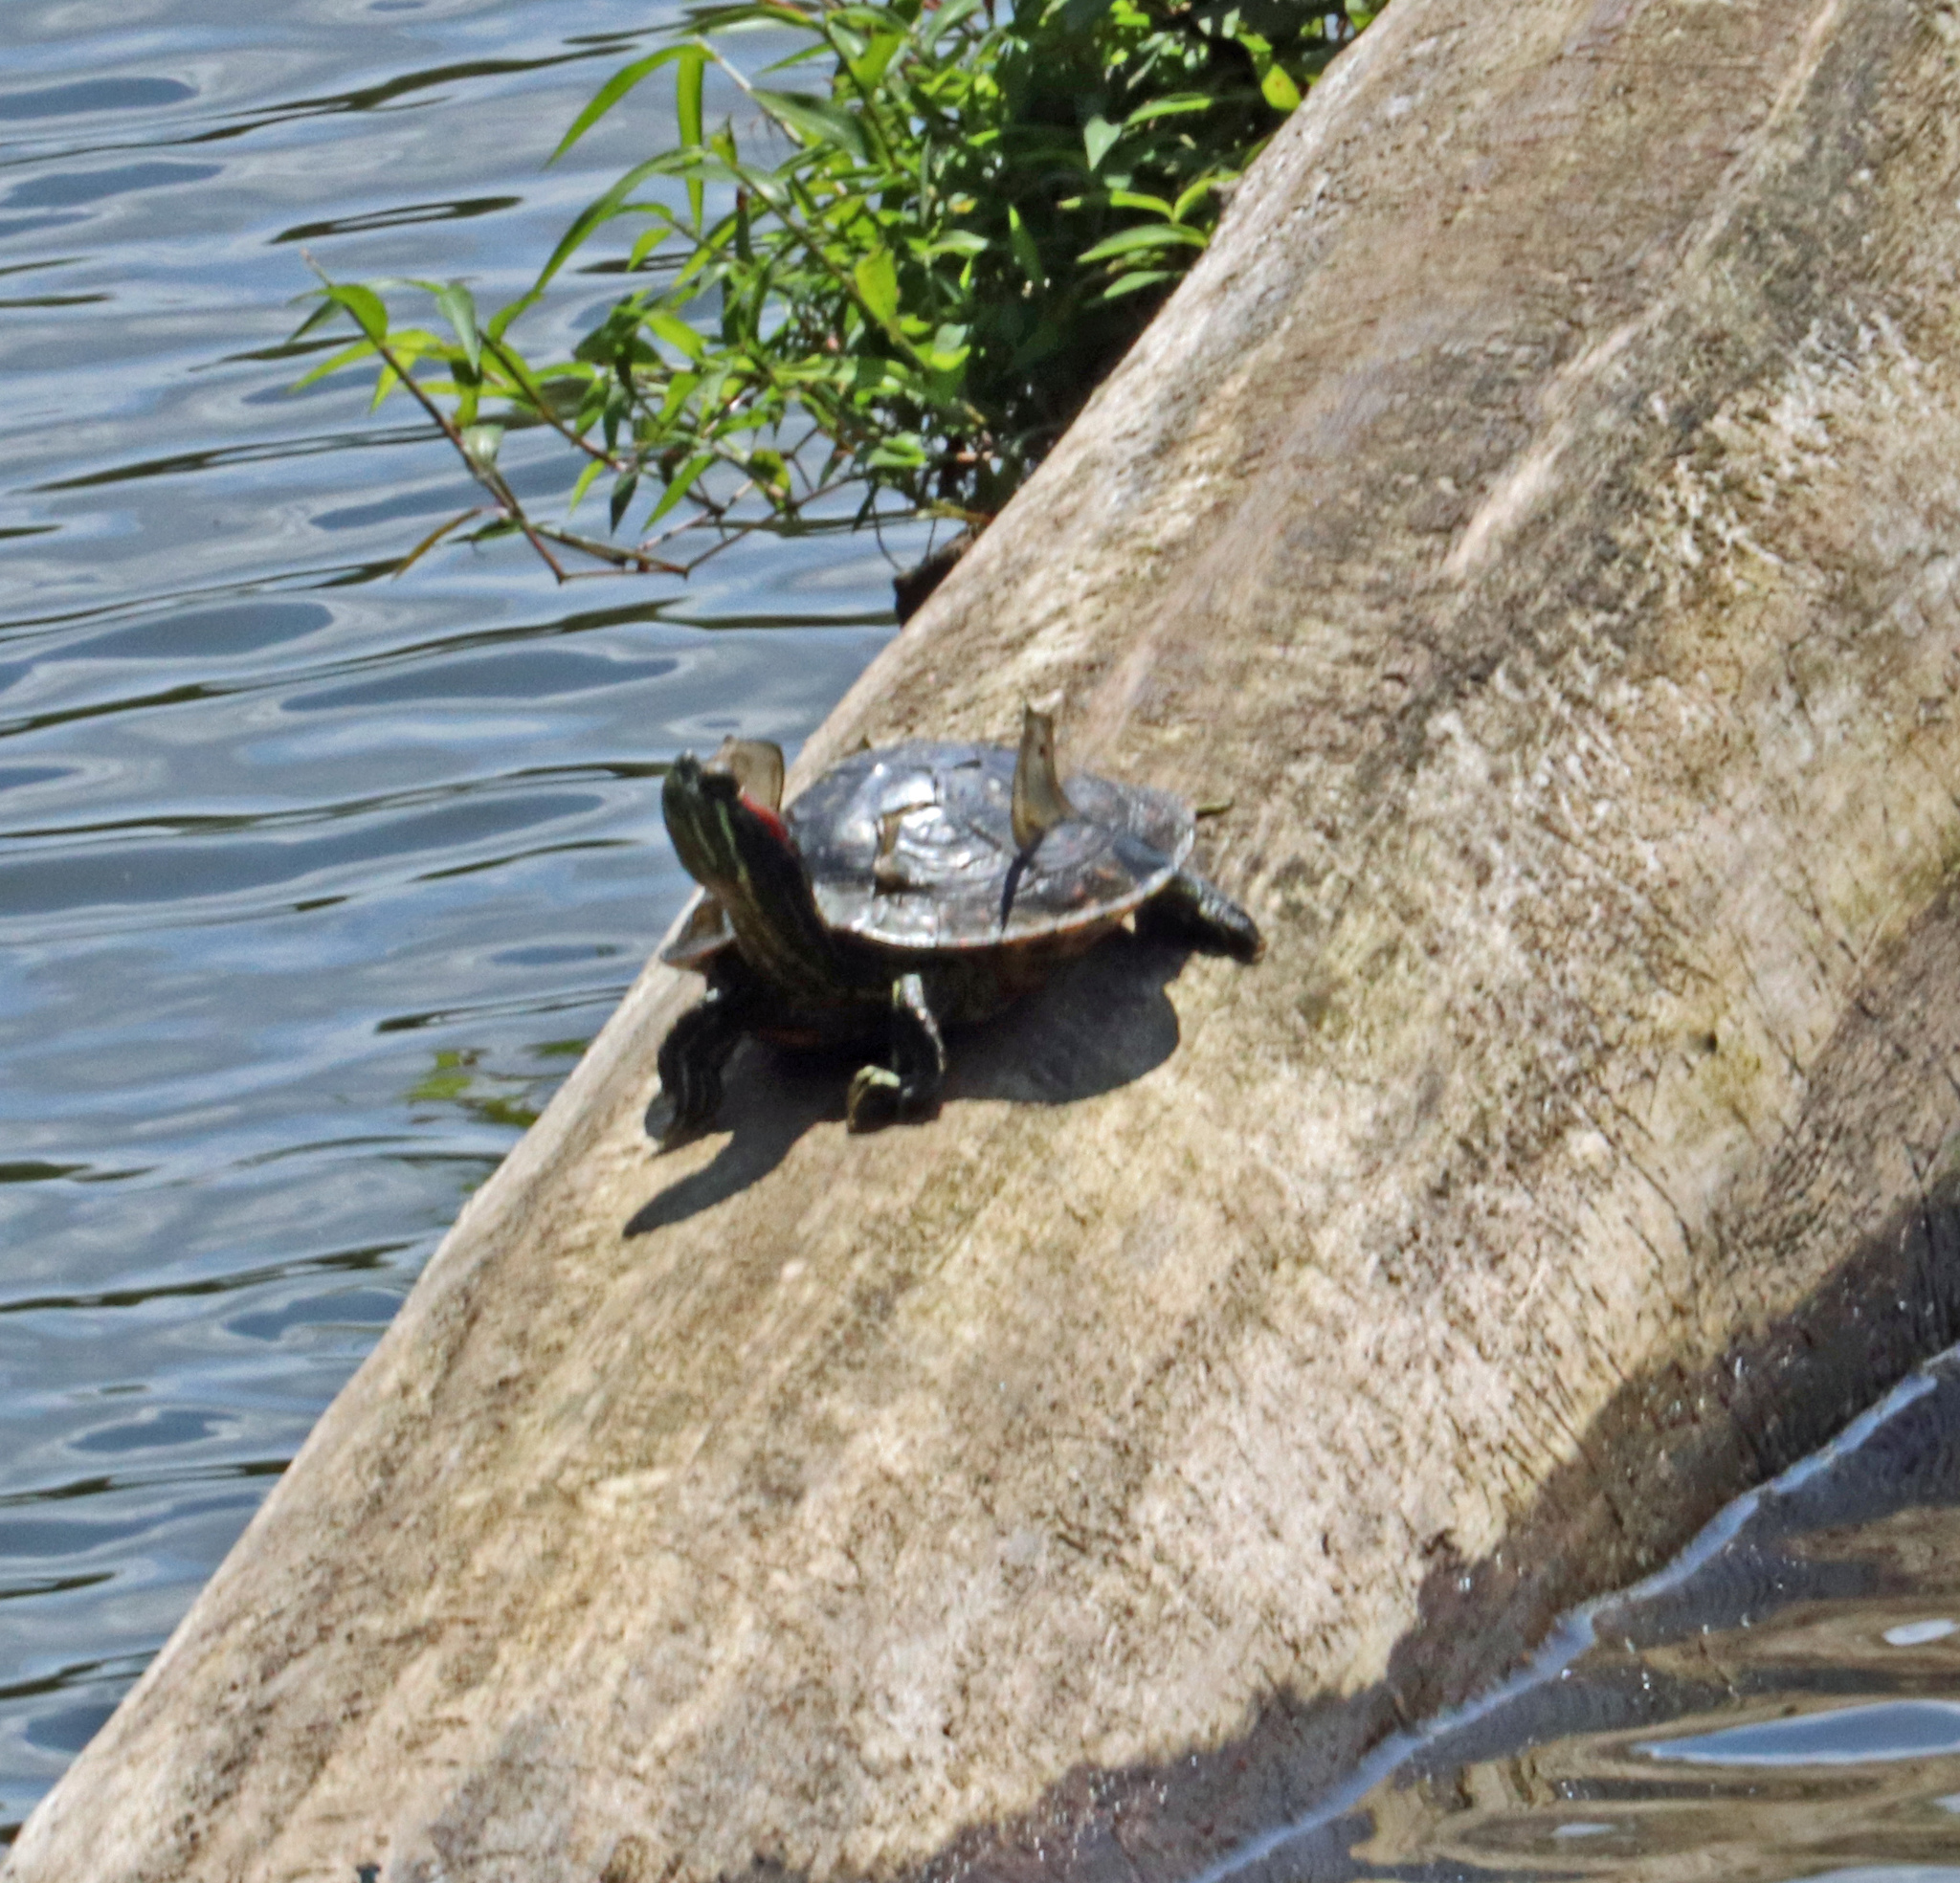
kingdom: Animalia
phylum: Chordata
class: Testudines
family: Emydidae
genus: Trachemys
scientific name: Trachemys scripta
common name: Slider
